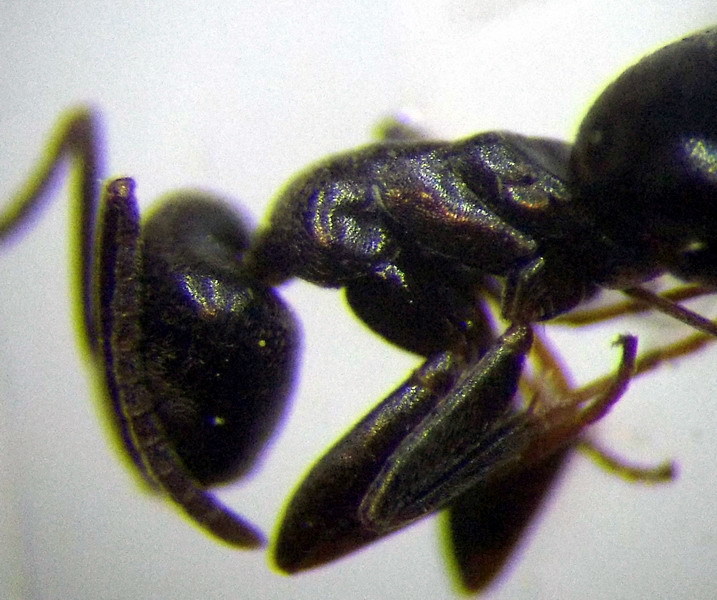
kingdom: Animalia
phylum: Arthropoda
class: Insecta
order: Hymenoptera
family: Formicidae
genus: Tapinoma
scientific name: Tapinoma erraticum
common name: Erratic ant
